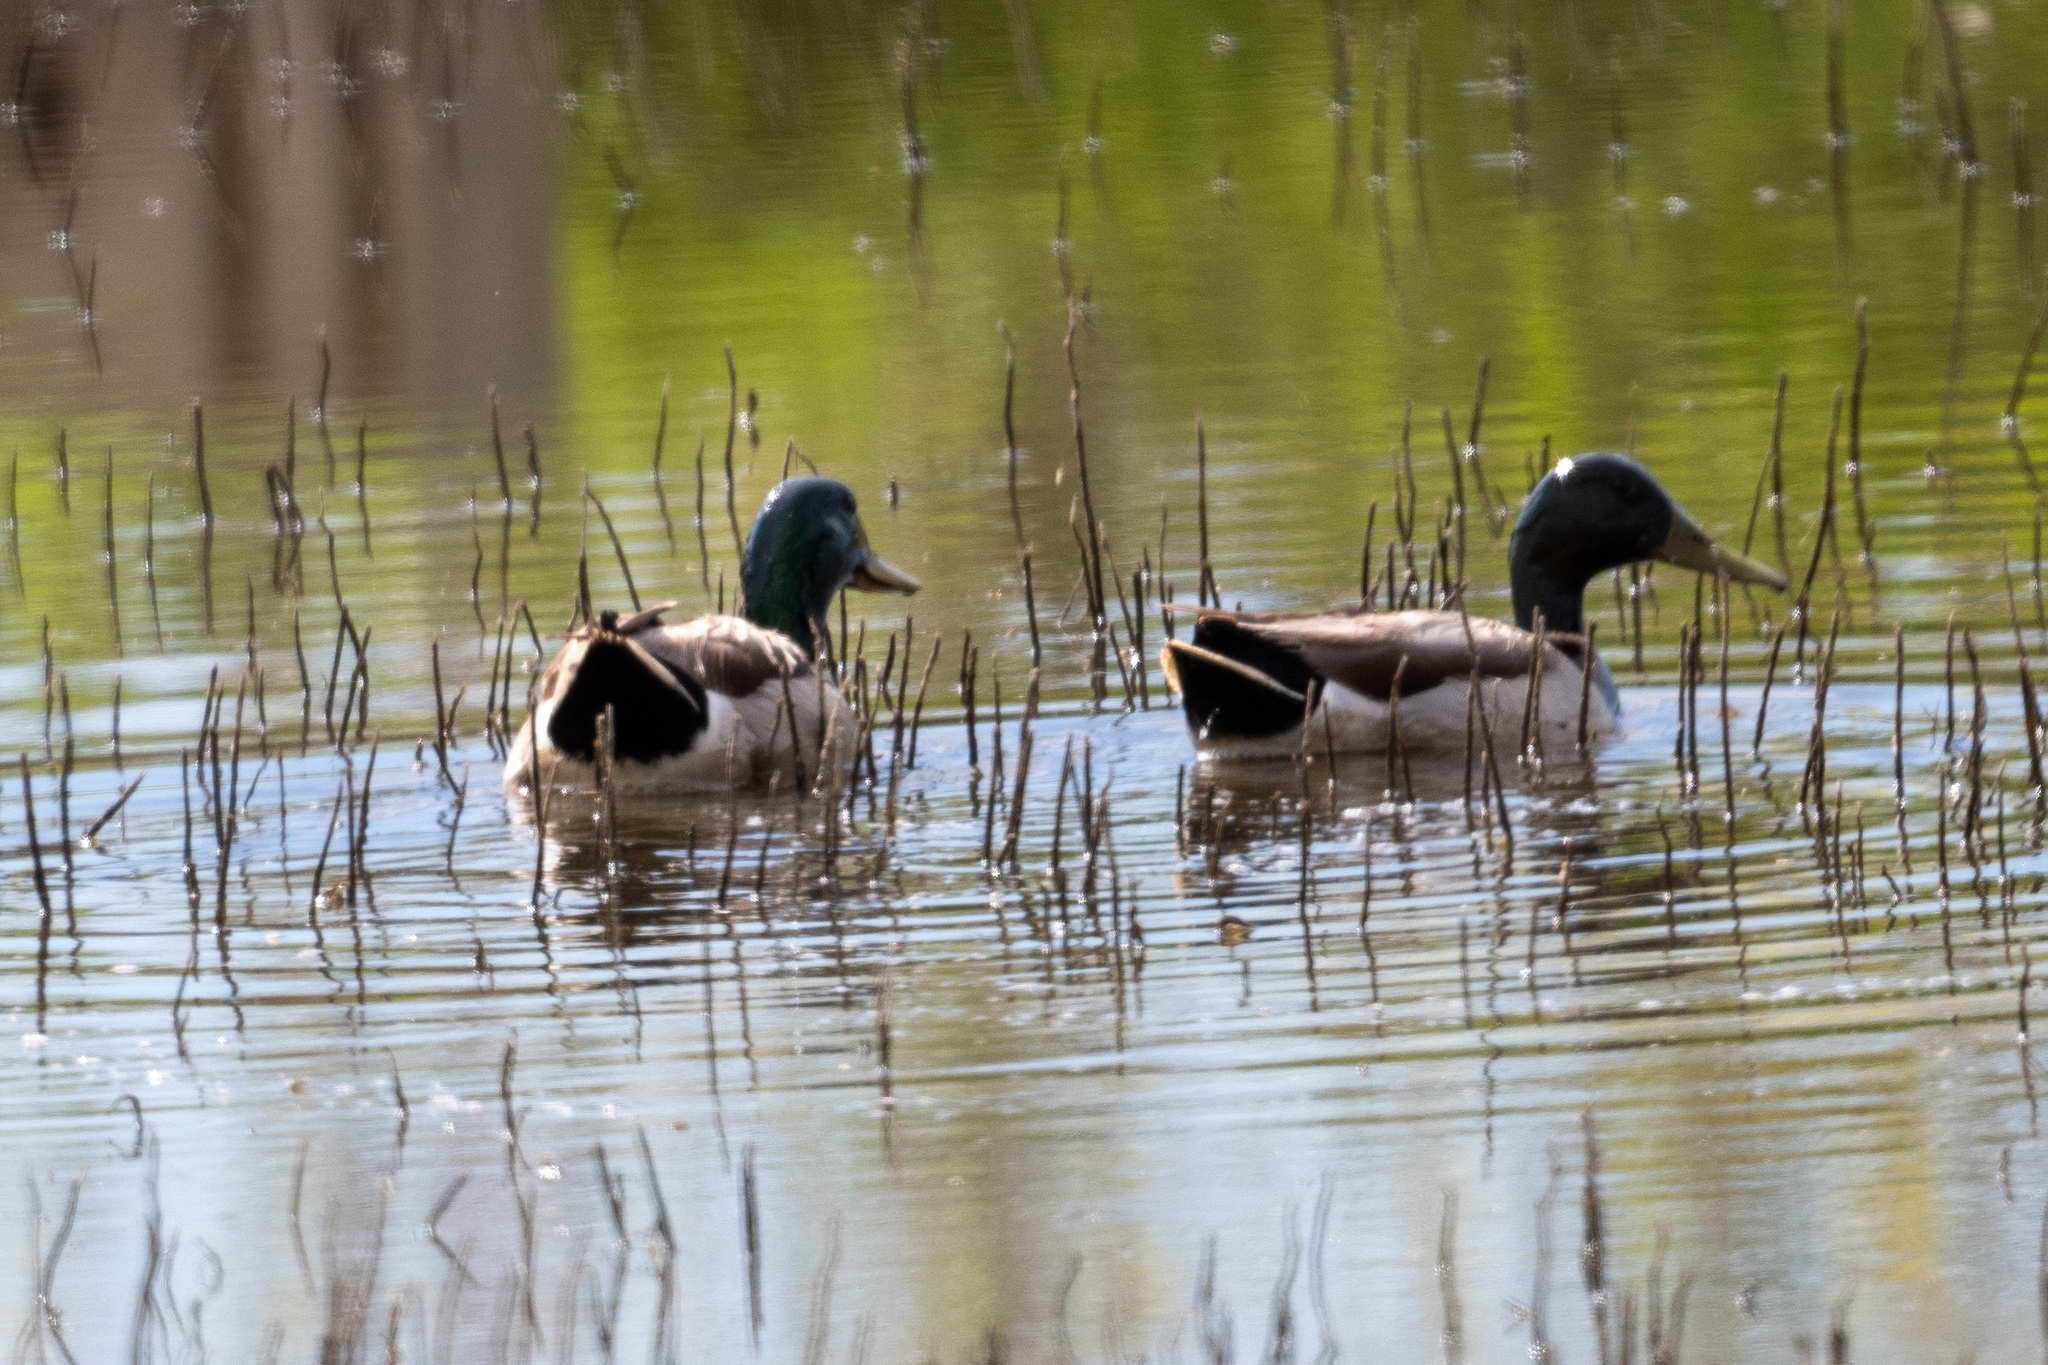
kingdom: Animalia
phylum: Chordata
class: Aves
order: Anseriformes
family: Anatidae
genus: Anas
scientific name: Anas platyrhynchos
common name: Mallard
